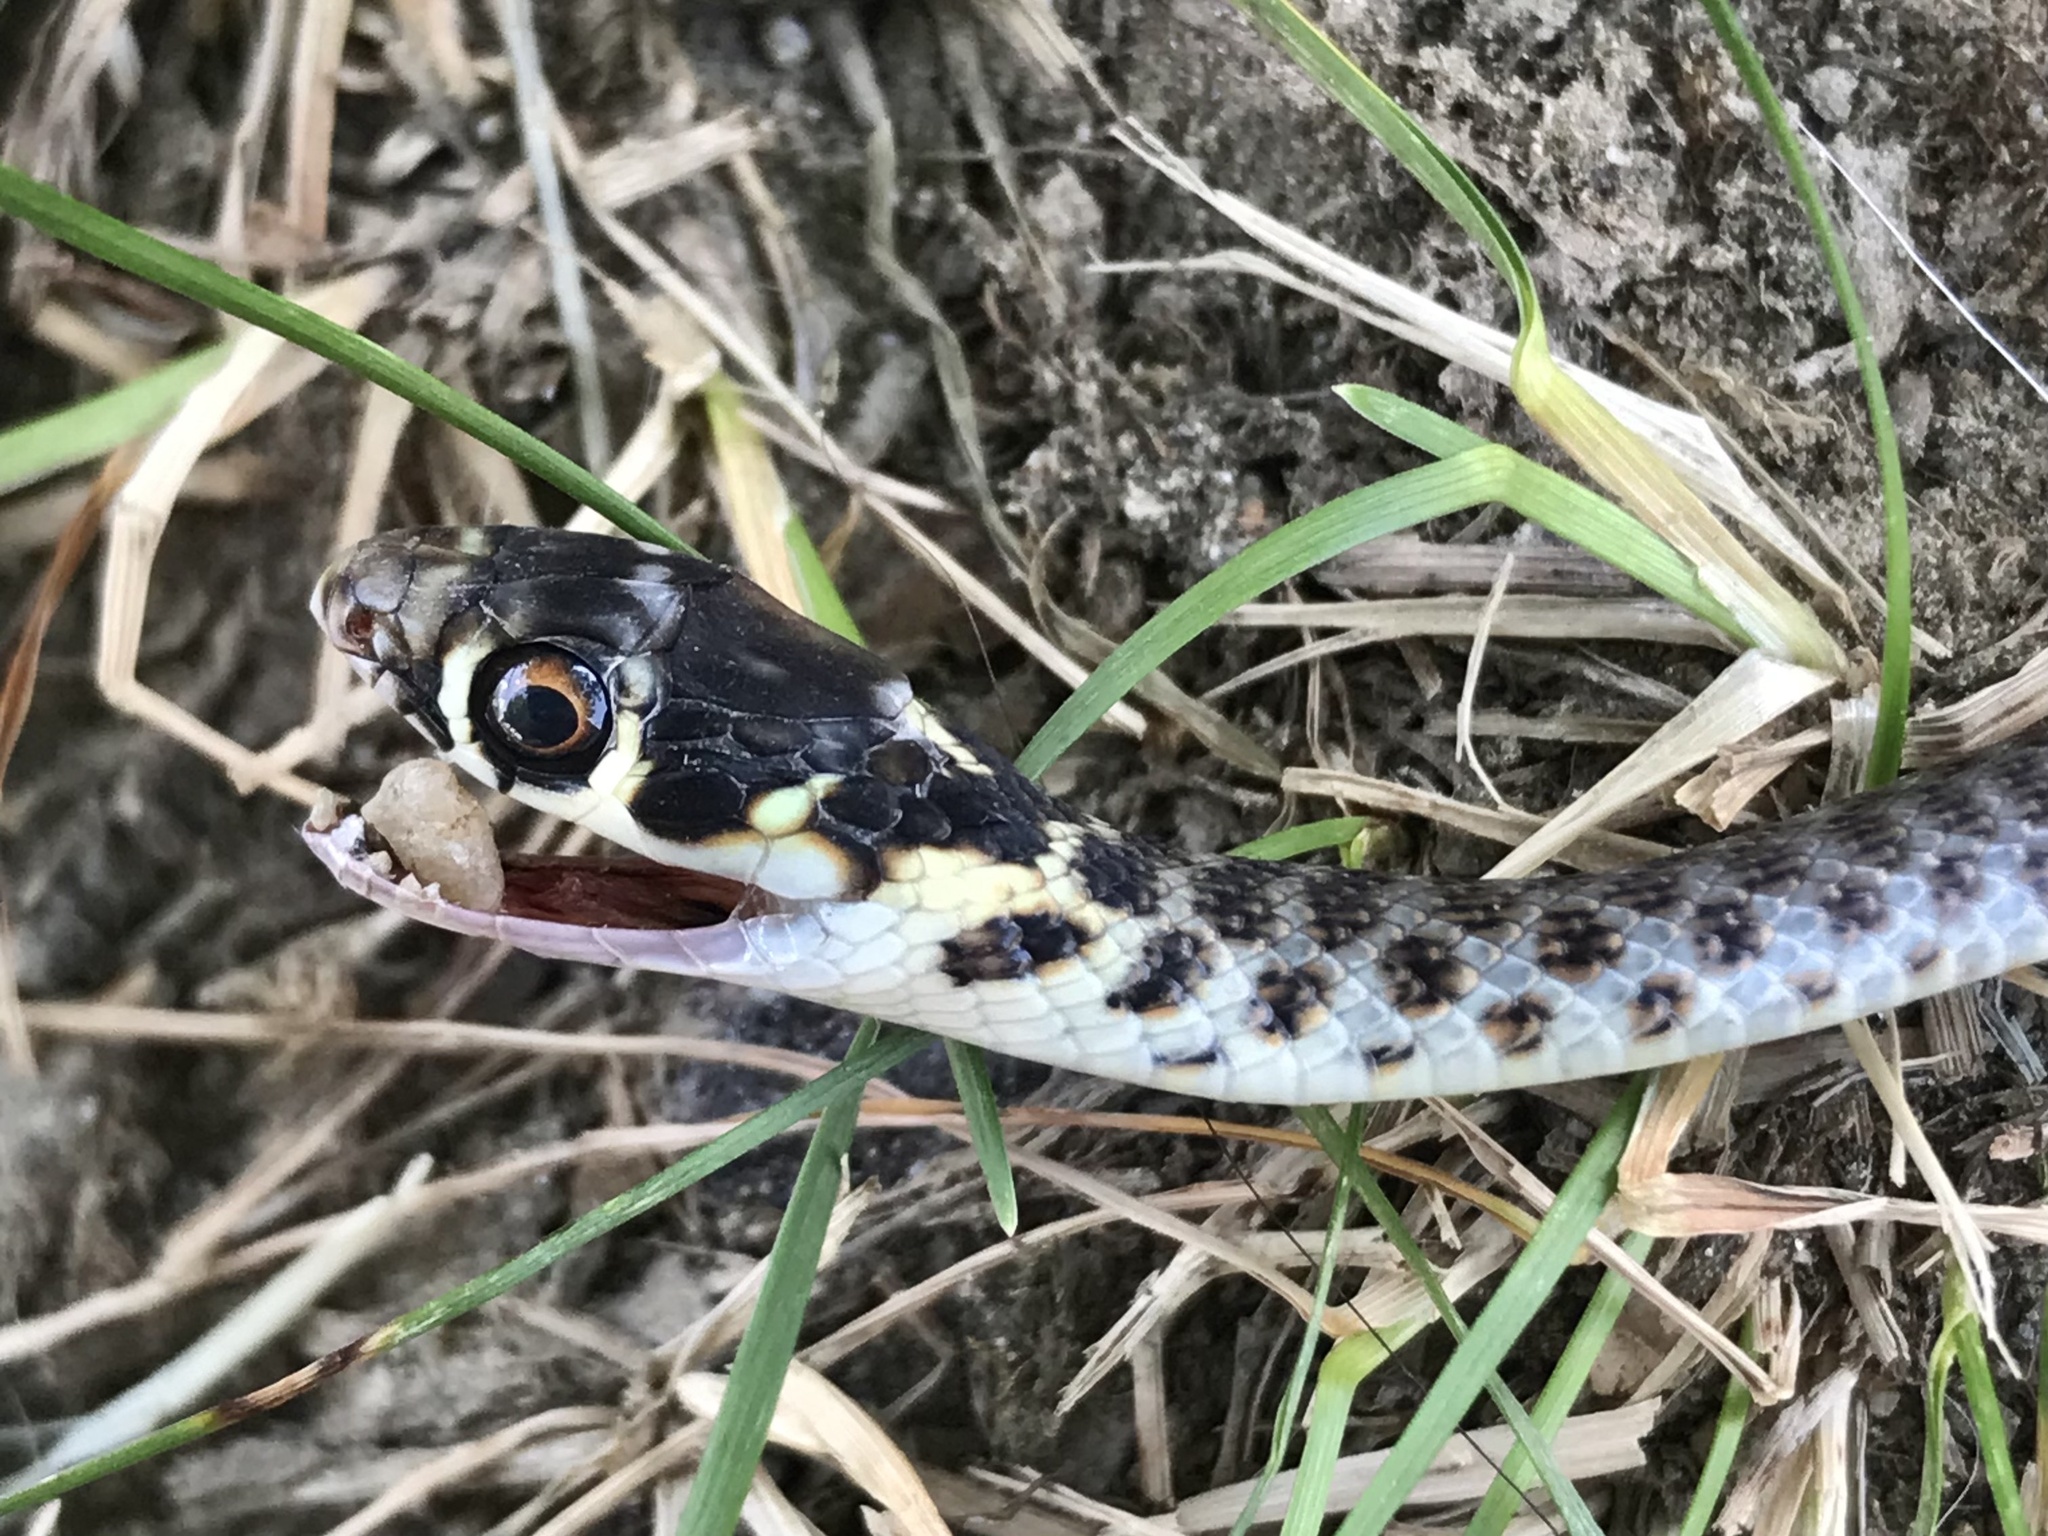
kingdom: Animalia
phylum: Chordata
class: Squamata
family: Colubridae
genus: Hierophis
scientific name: Hierophis viridiflavus
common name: Green whip snake
